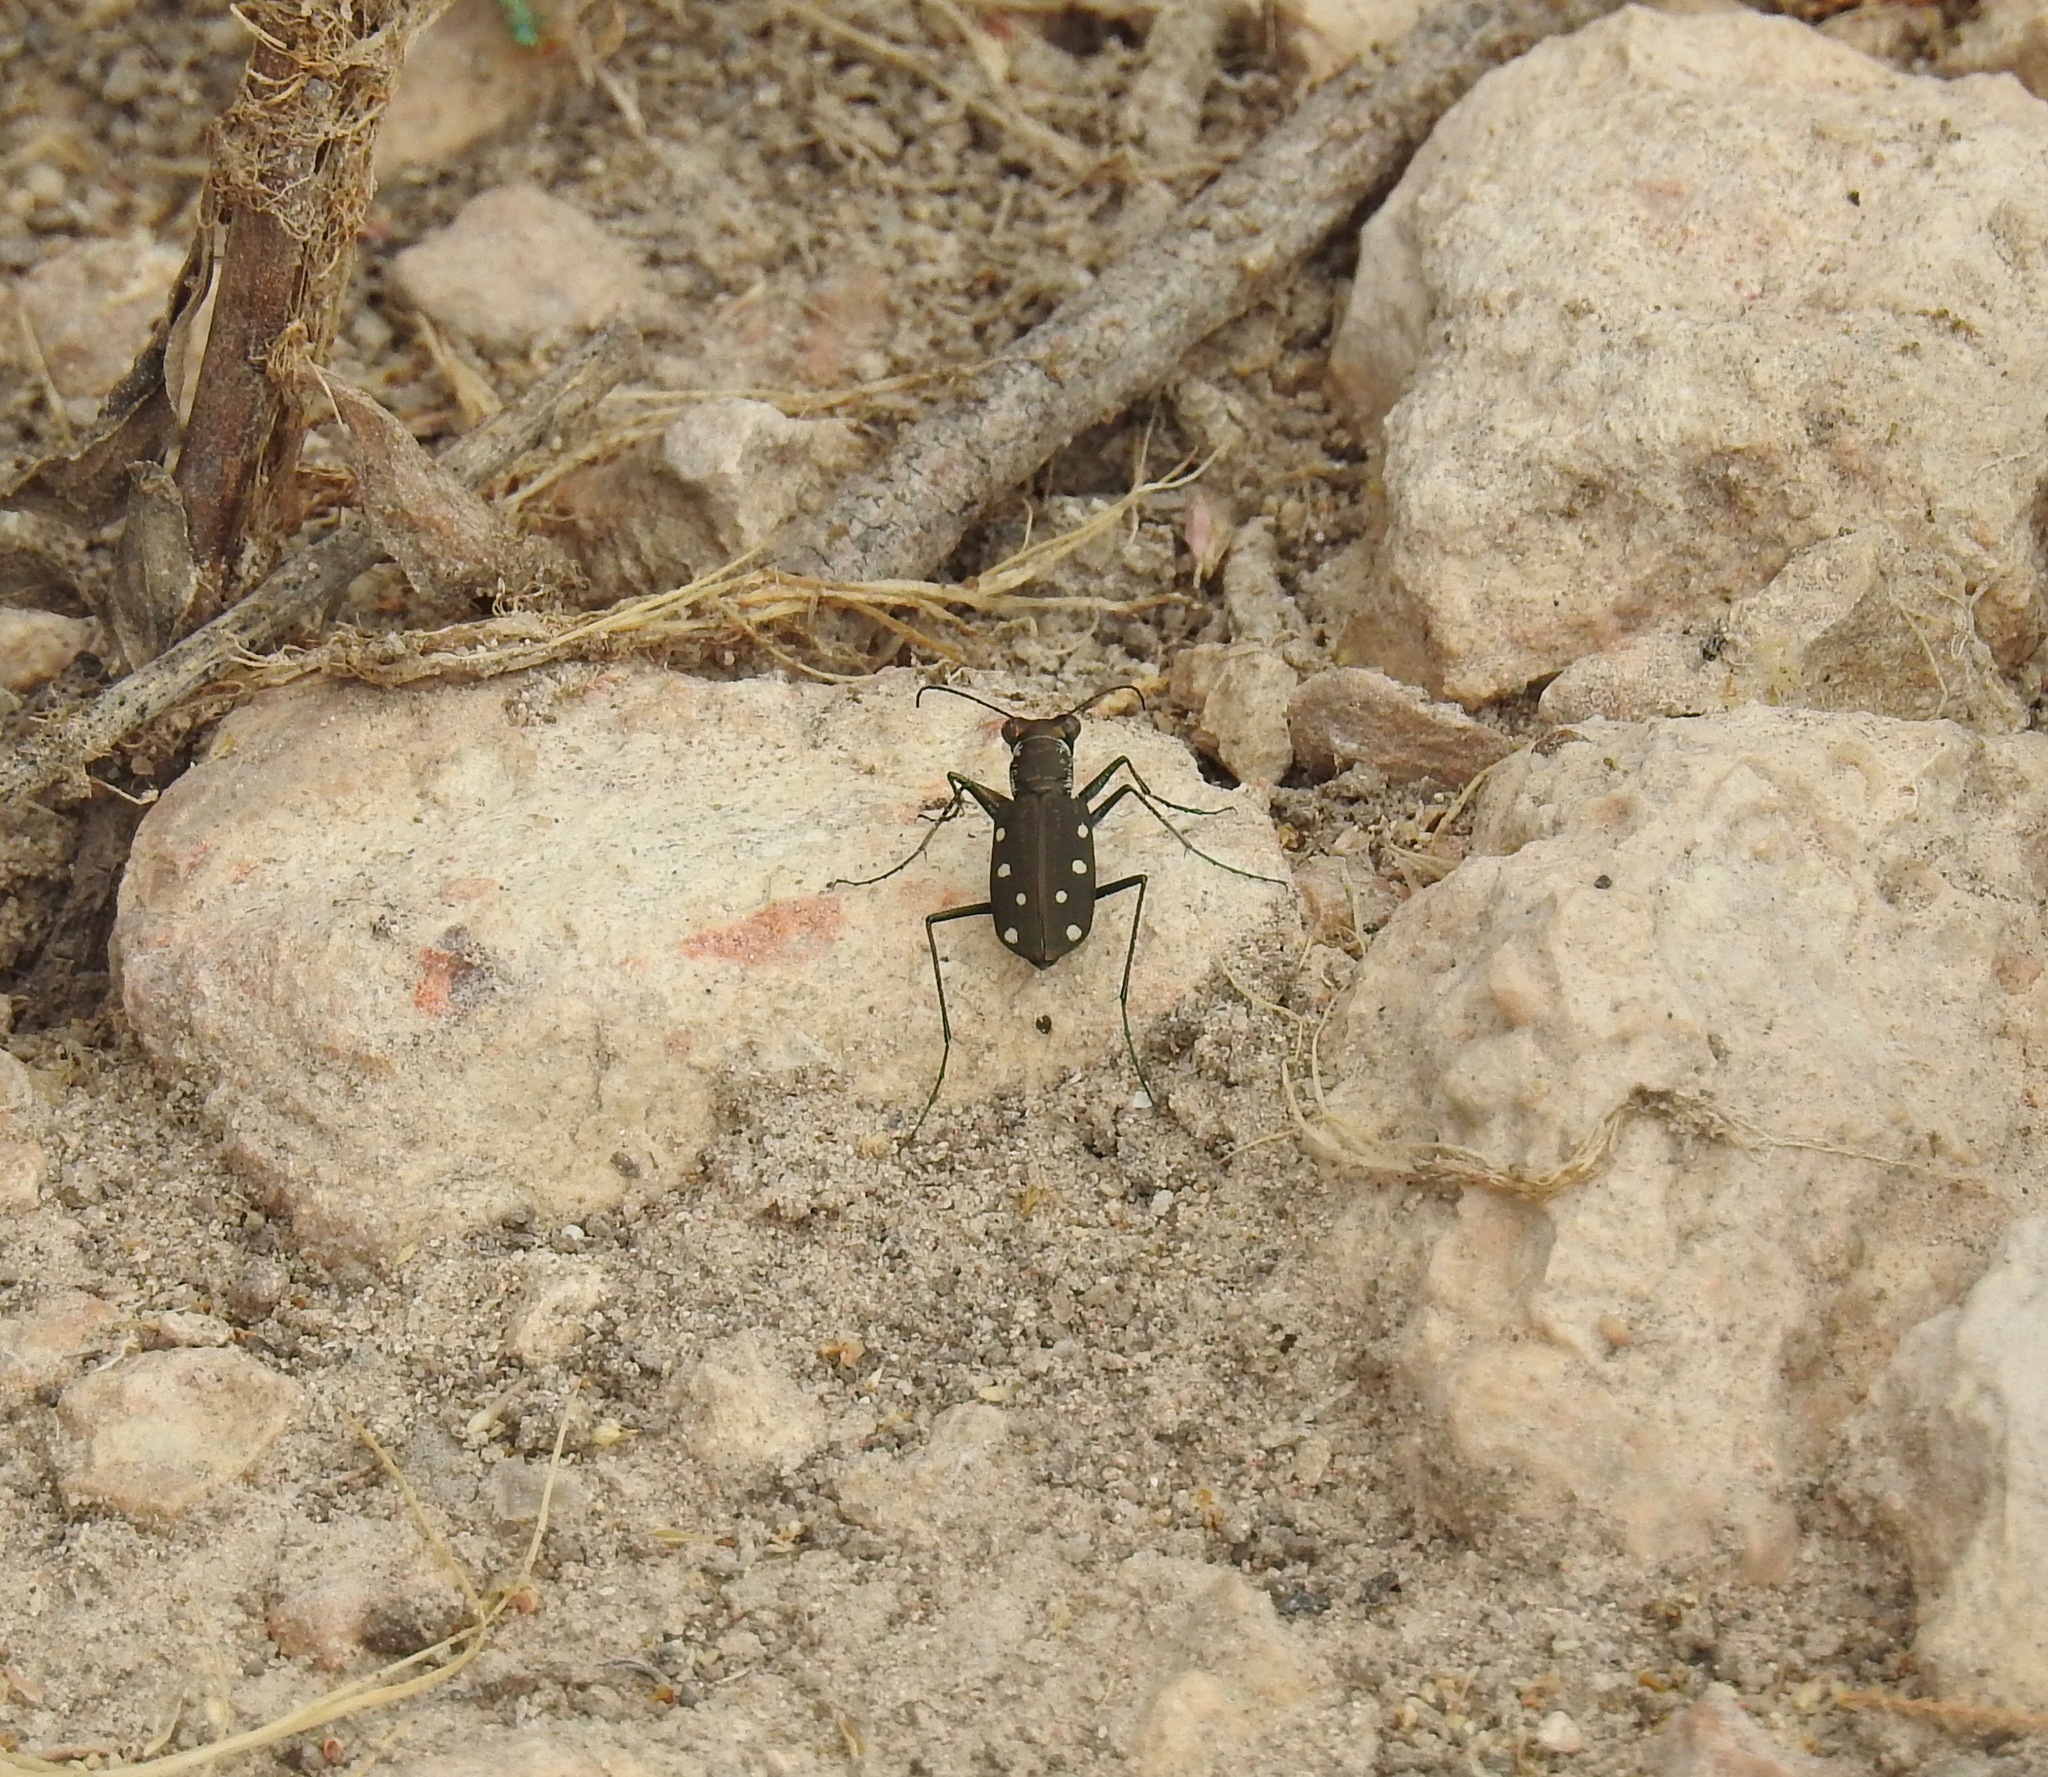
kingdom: Animalia
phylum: Arthropoda
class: Insecta
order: Coleoptera
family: Carabidae
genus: Cicindela
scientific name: Cicindela ocellata
